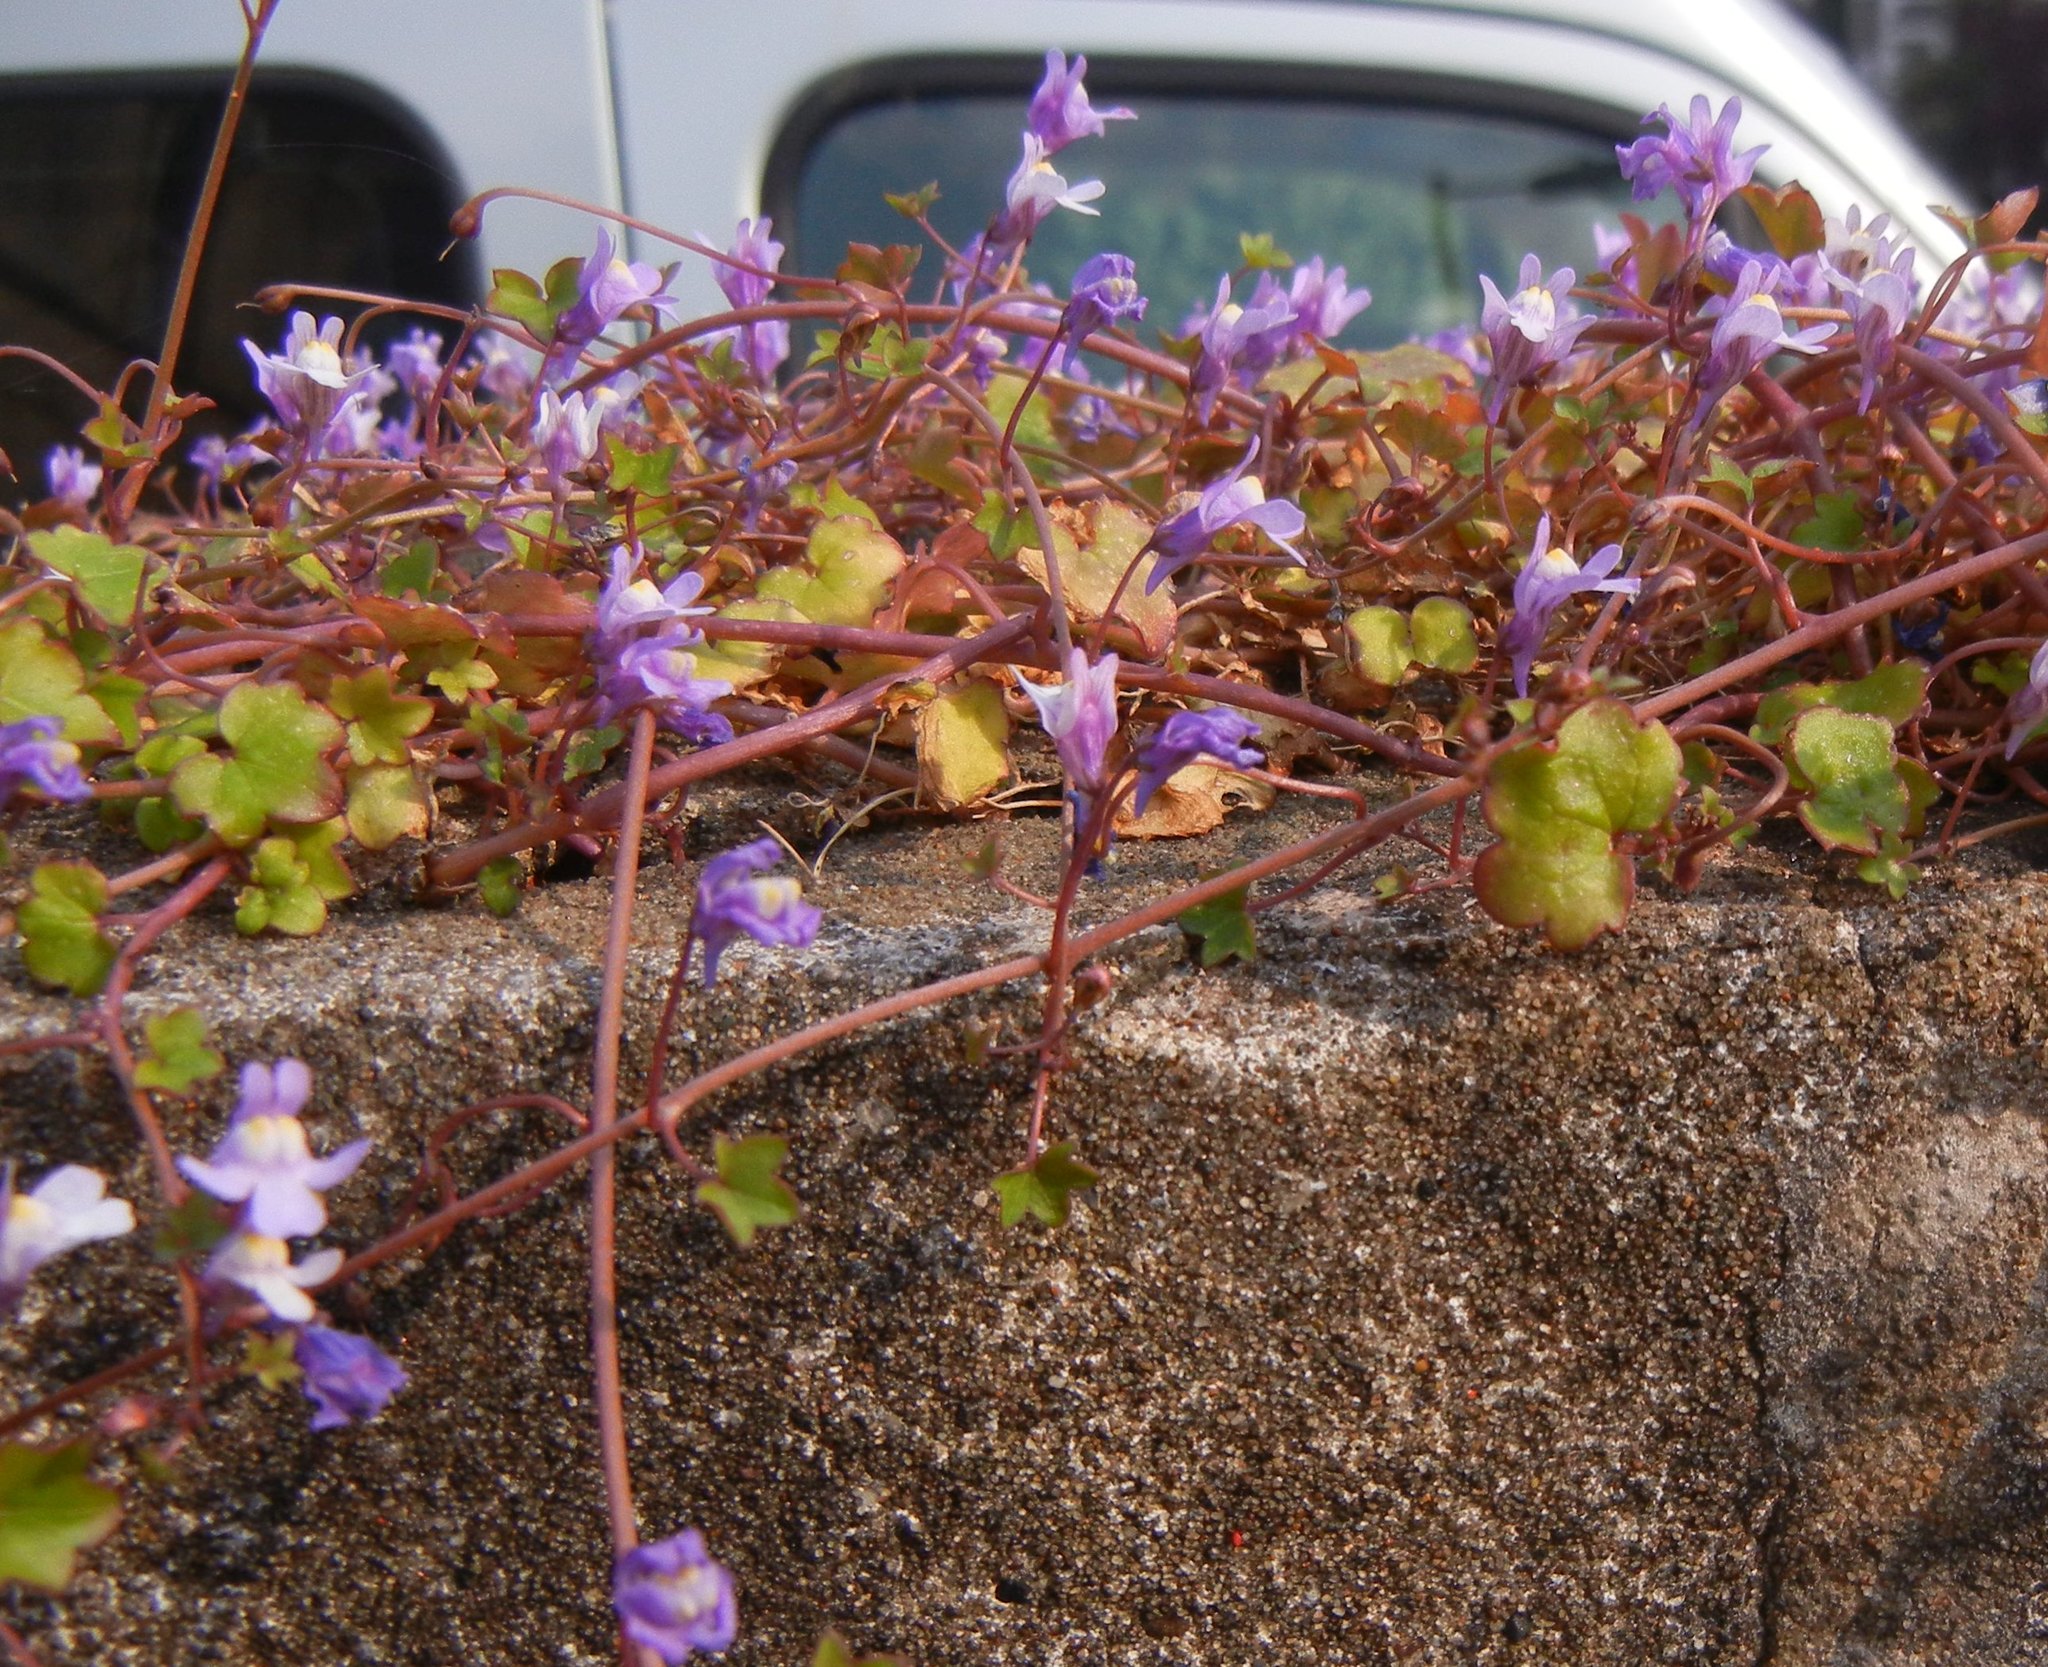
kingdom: Plantae
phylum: Tracheophyta
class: Magnoliopsida
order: Lamiales
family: Plantaginaceae
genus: Cymbalaria
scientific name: Cymbalaria muralis
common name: Ivy-leaved toadflax
